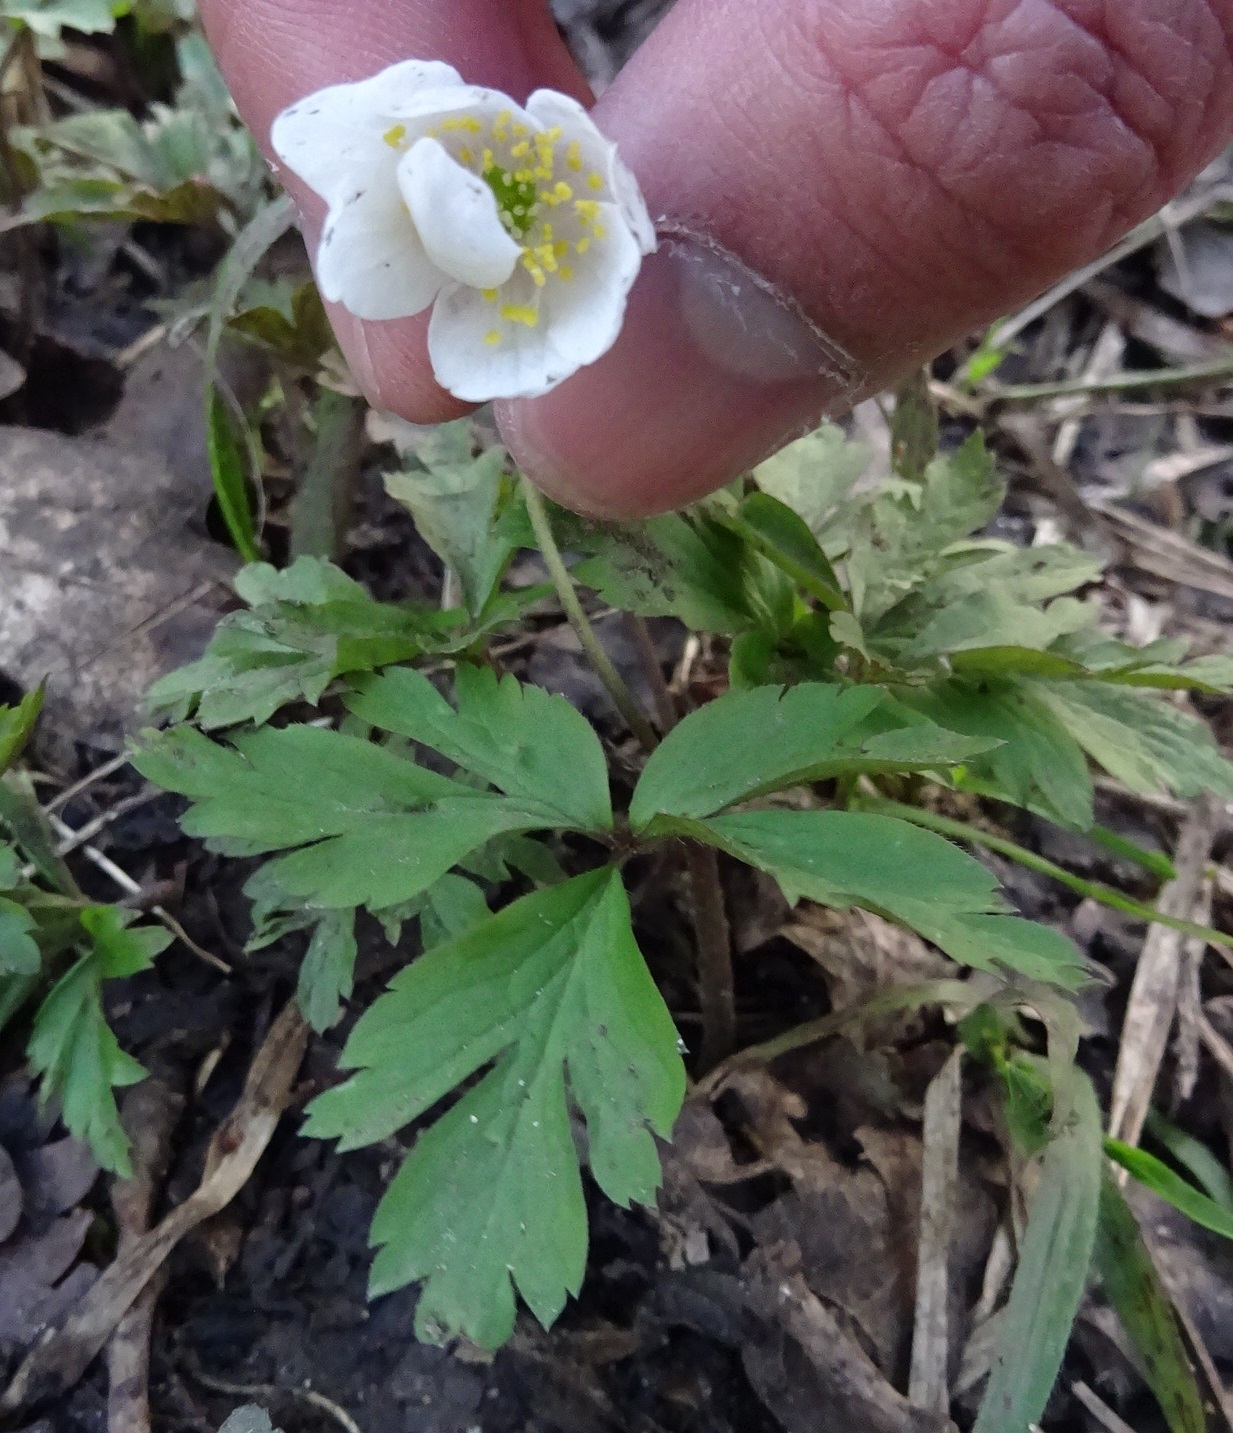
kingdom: Plantae
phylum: Tracheophyta
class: Magnoliopsida
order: Ranunculales
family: Ranunculaceae
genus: Anemone
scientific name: Anemone nemorosa
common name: Wood anemone
